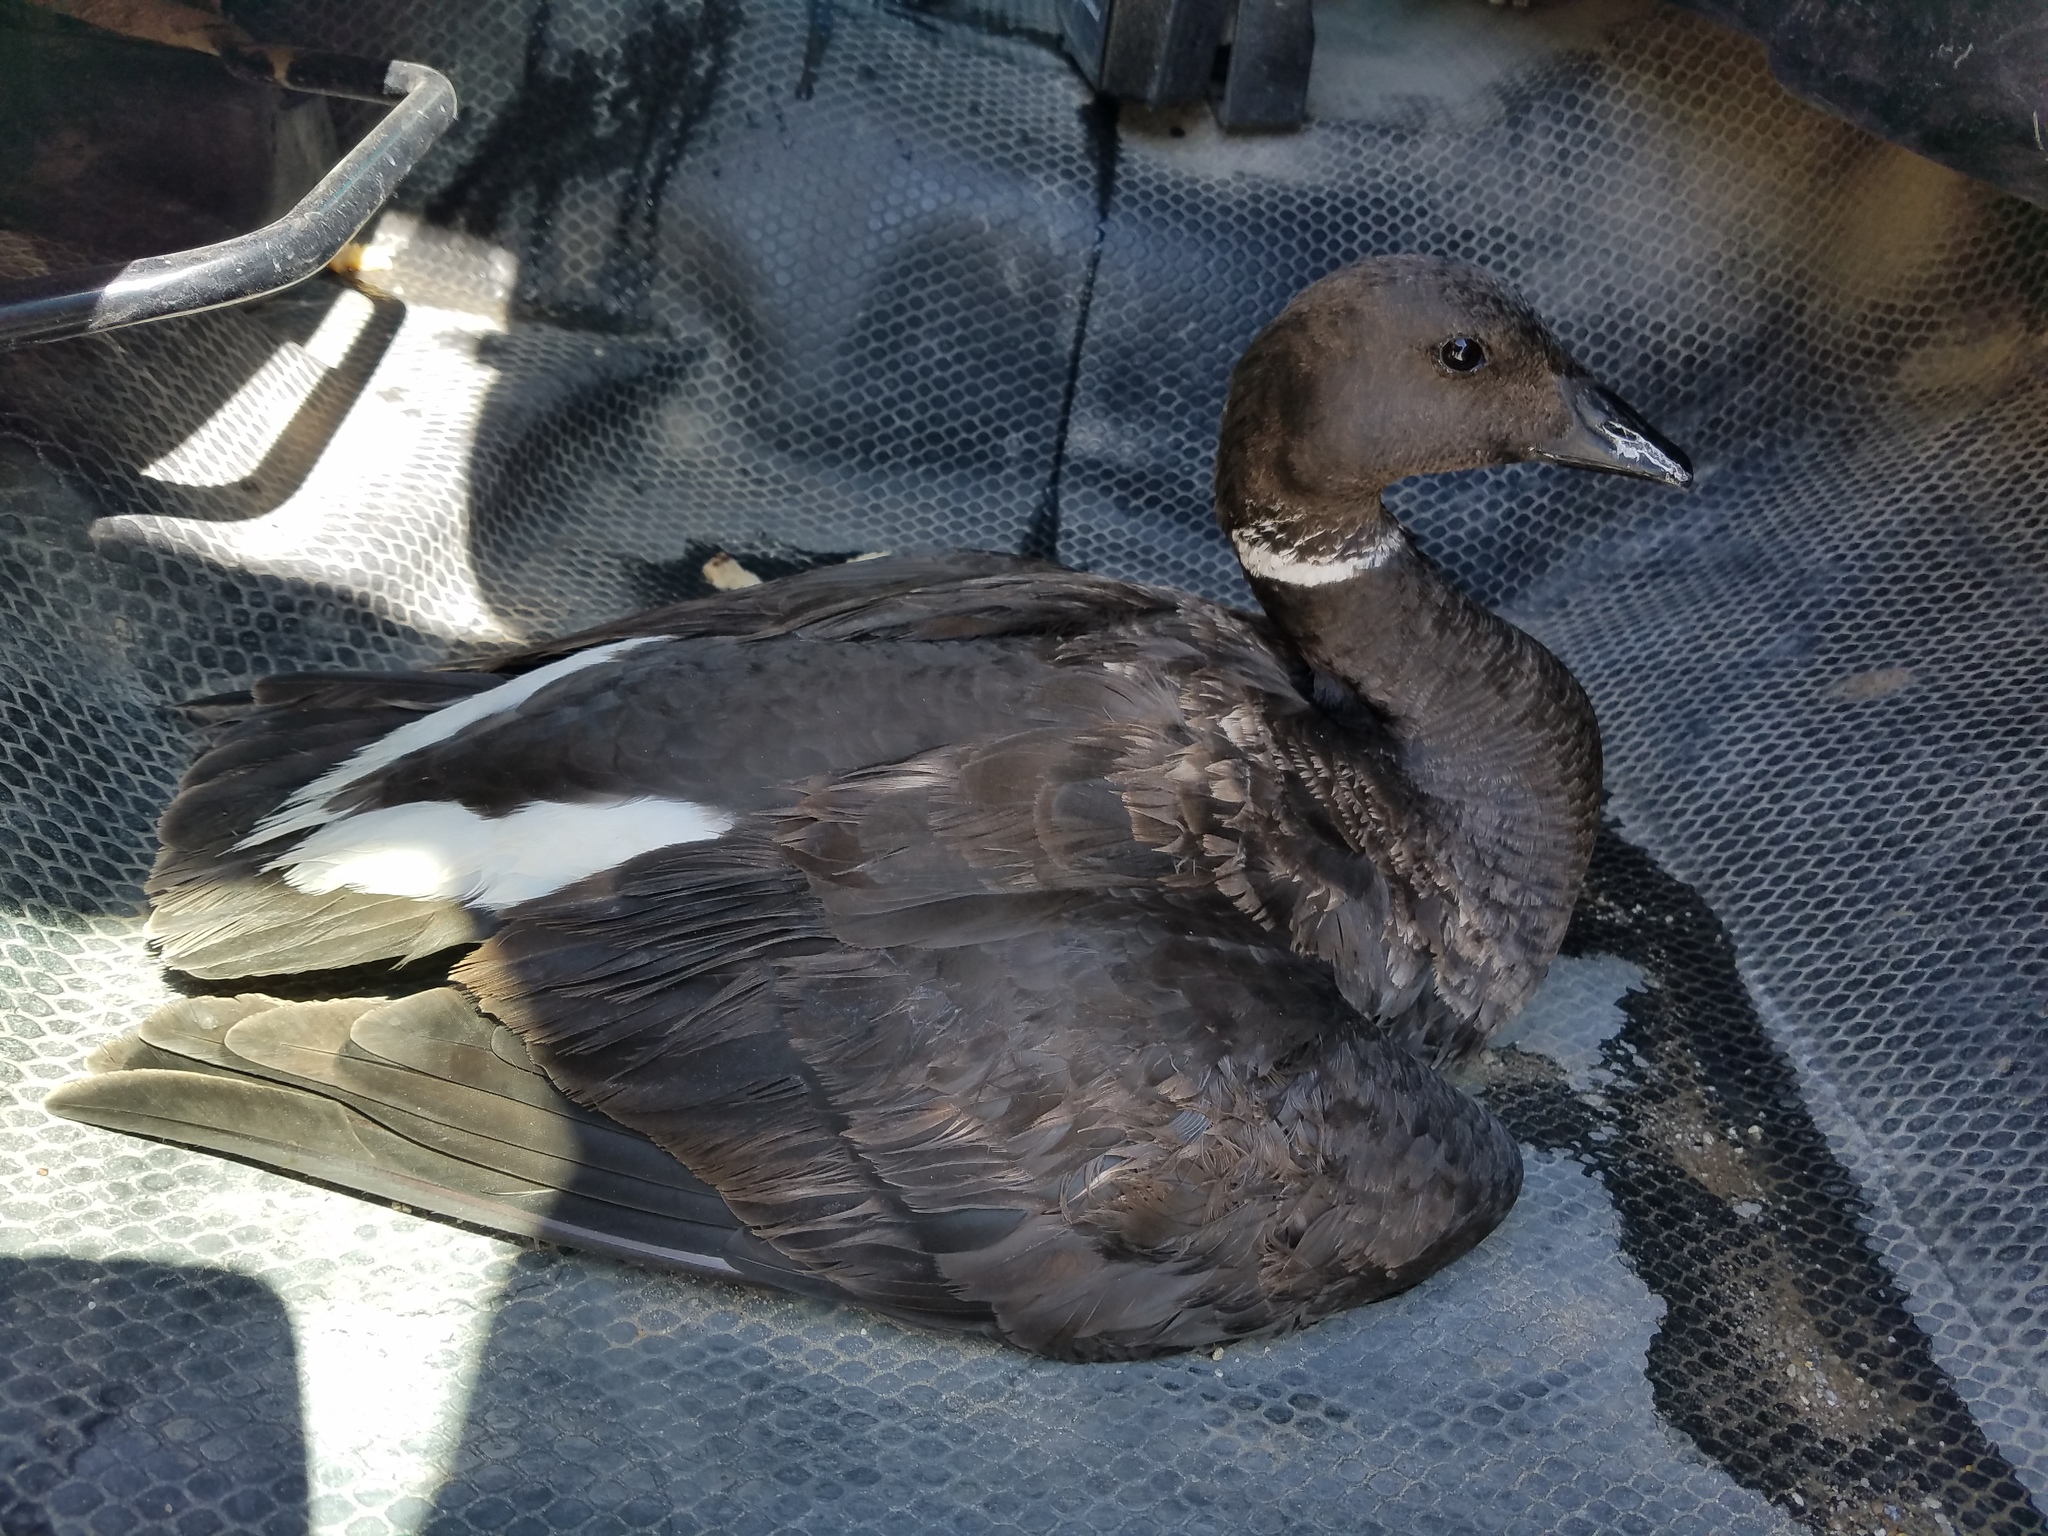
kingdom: Animalia
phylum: Chordata
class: Aves
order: Anseriformes
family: Anatidae
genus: Branta
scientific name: Branta bernicla
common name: Brant goose
